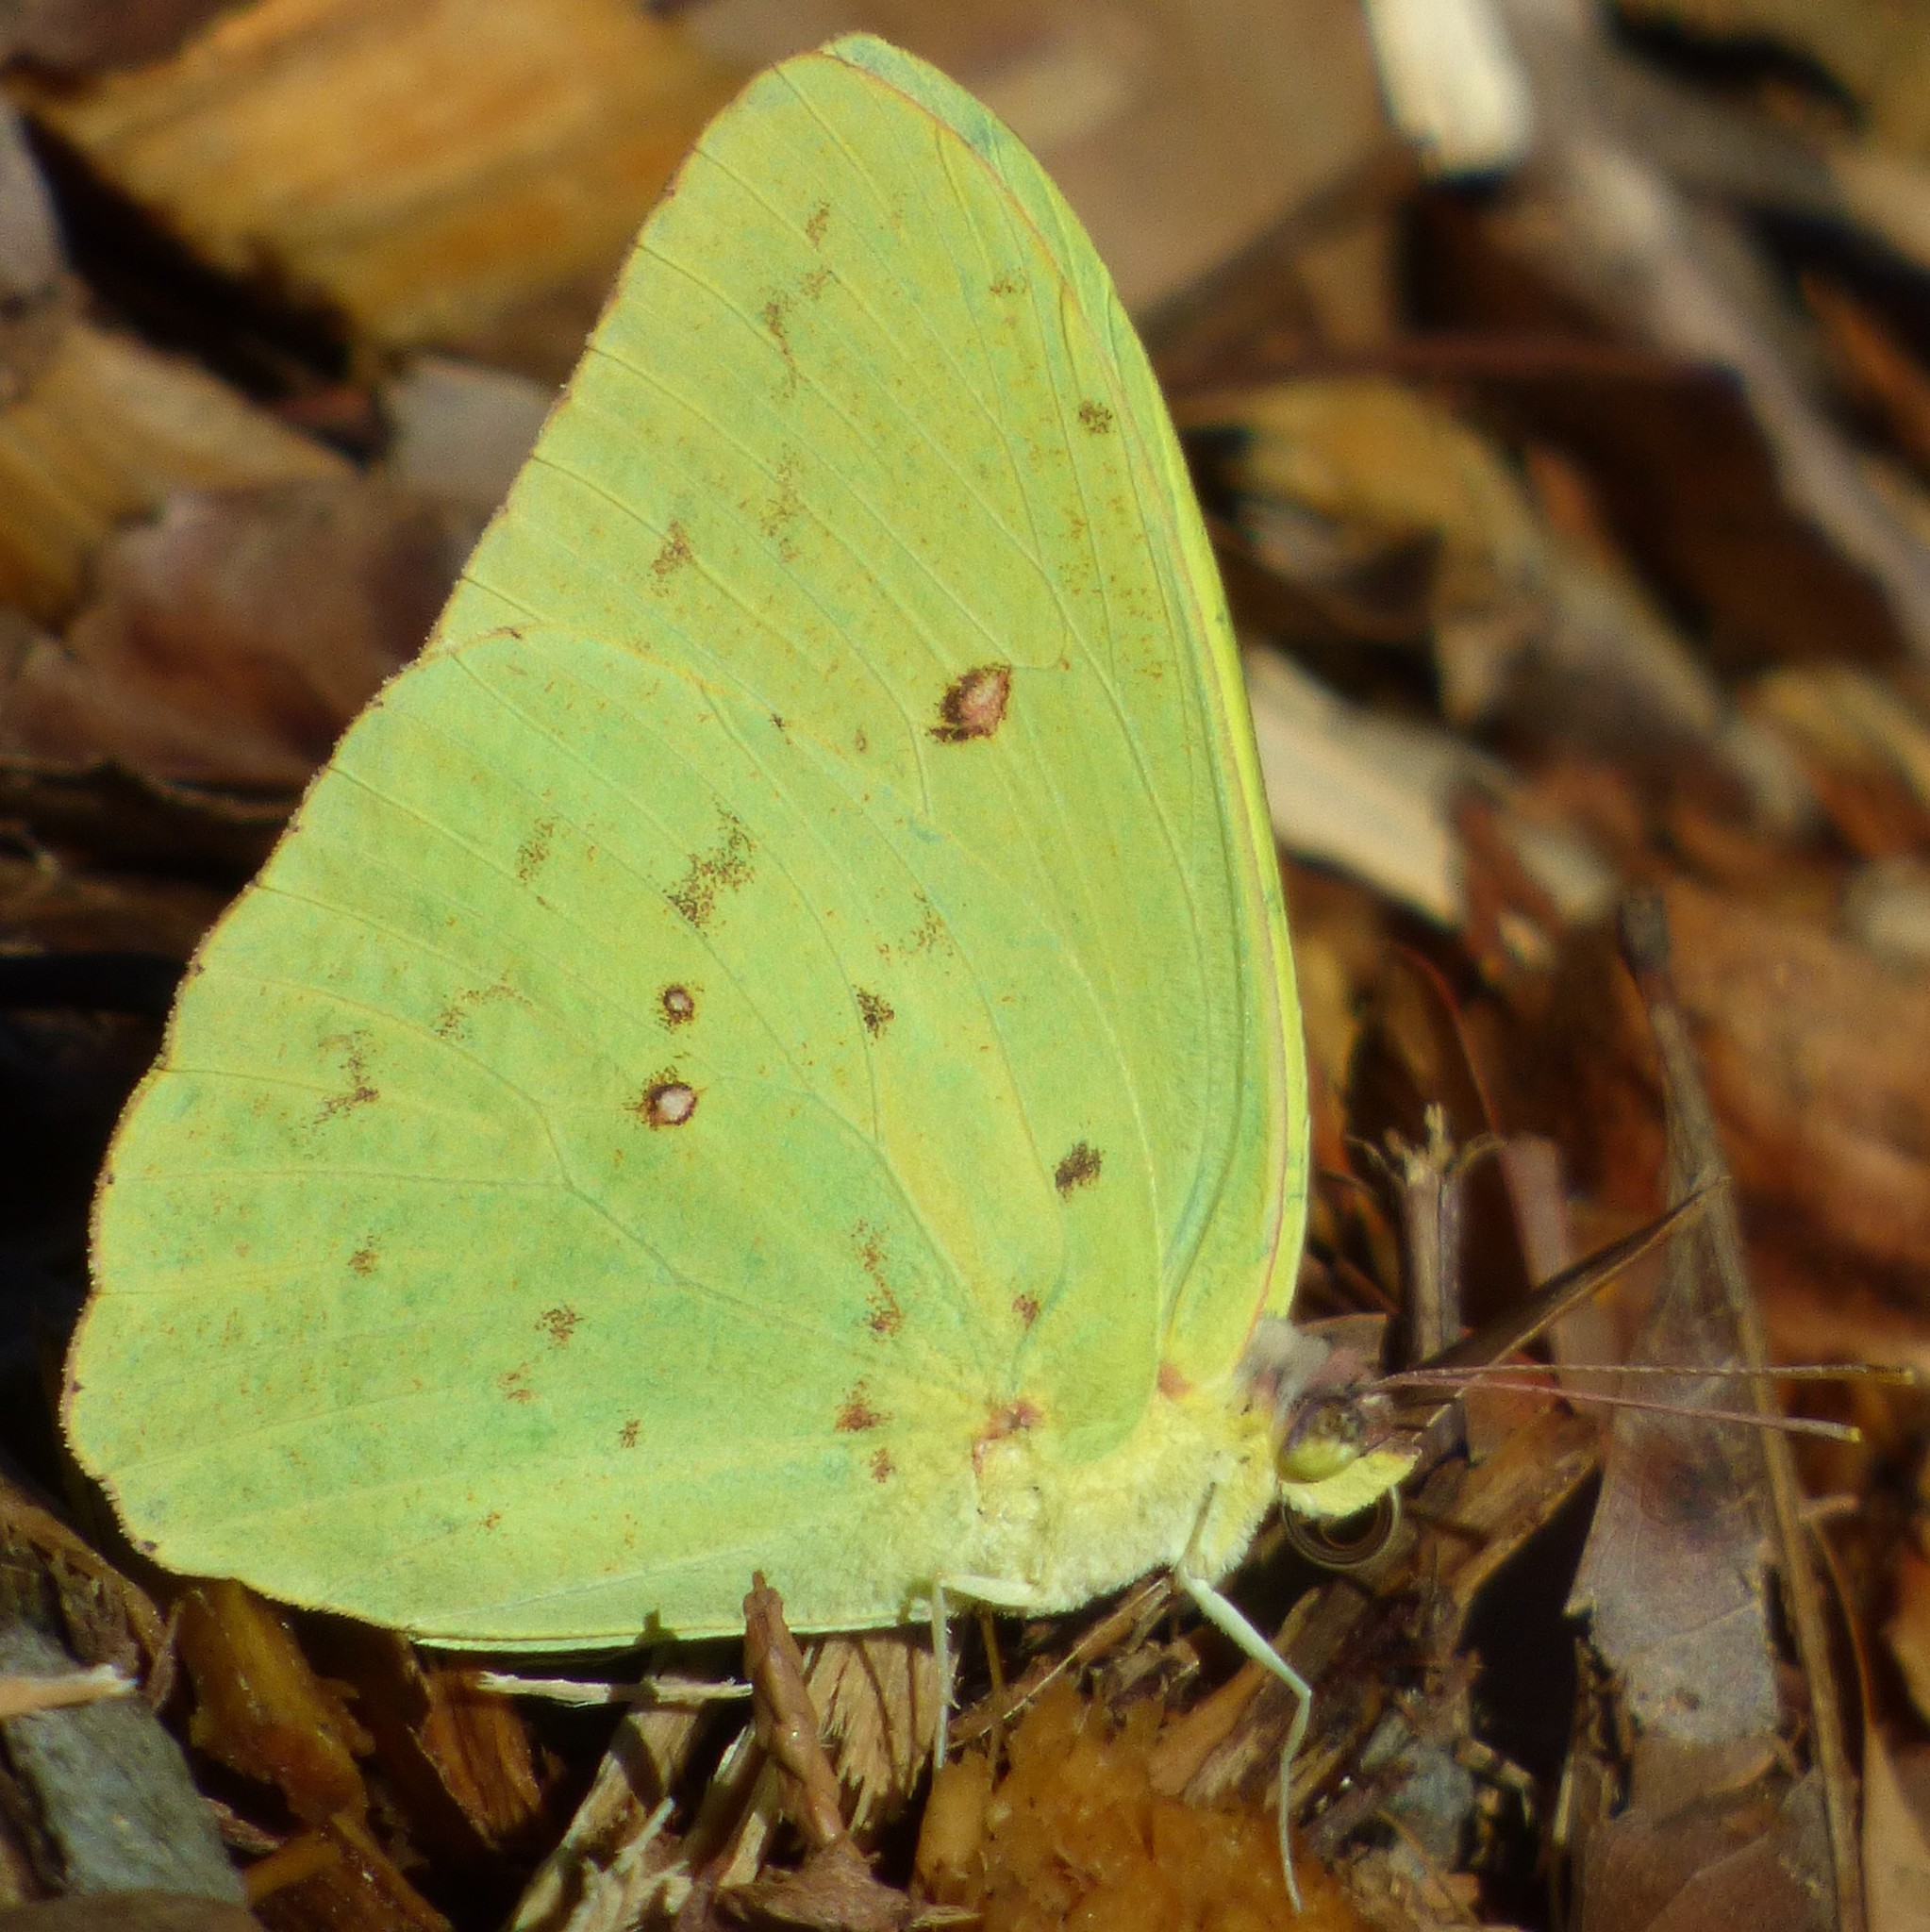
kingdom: Animalia
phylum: Arthropoda
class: Insecta
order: Lepidoptera
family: Pieridae
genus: Phoebis
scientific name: Phoebis sennae
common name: Cloudless sulphur
